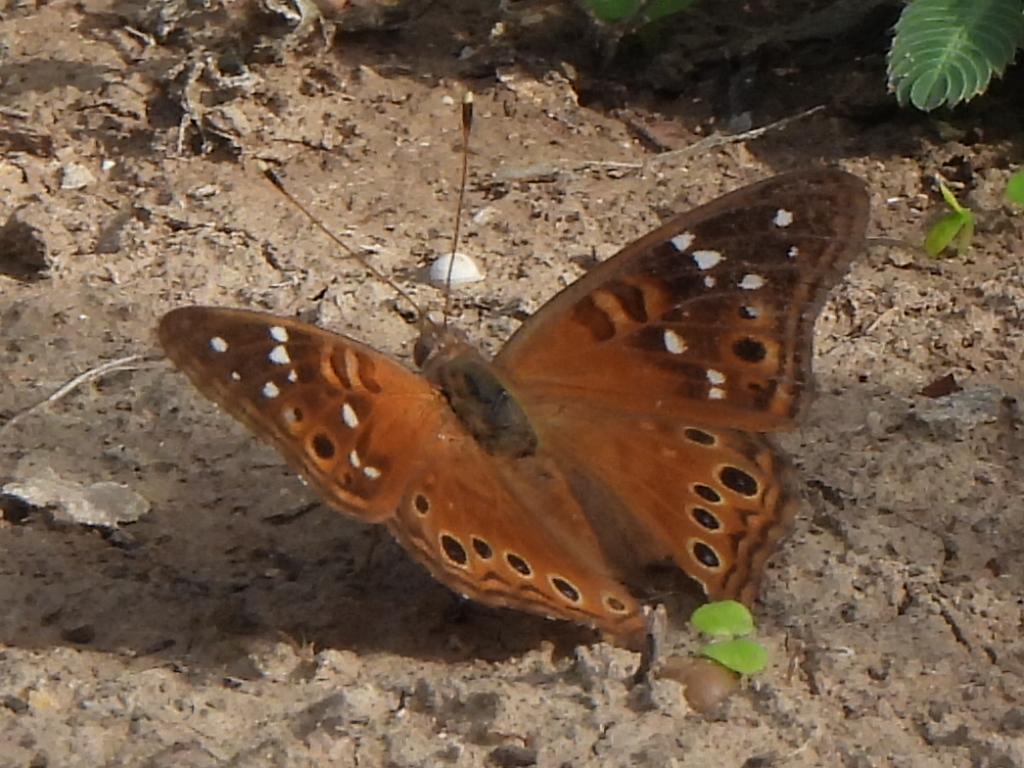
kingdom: Animalia
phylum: Arthropoda
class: Insecta
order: Lepidoptera
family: Nymphalidae
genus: Asterocampa
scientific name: Asterocampa leilia
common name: Empress leilia
